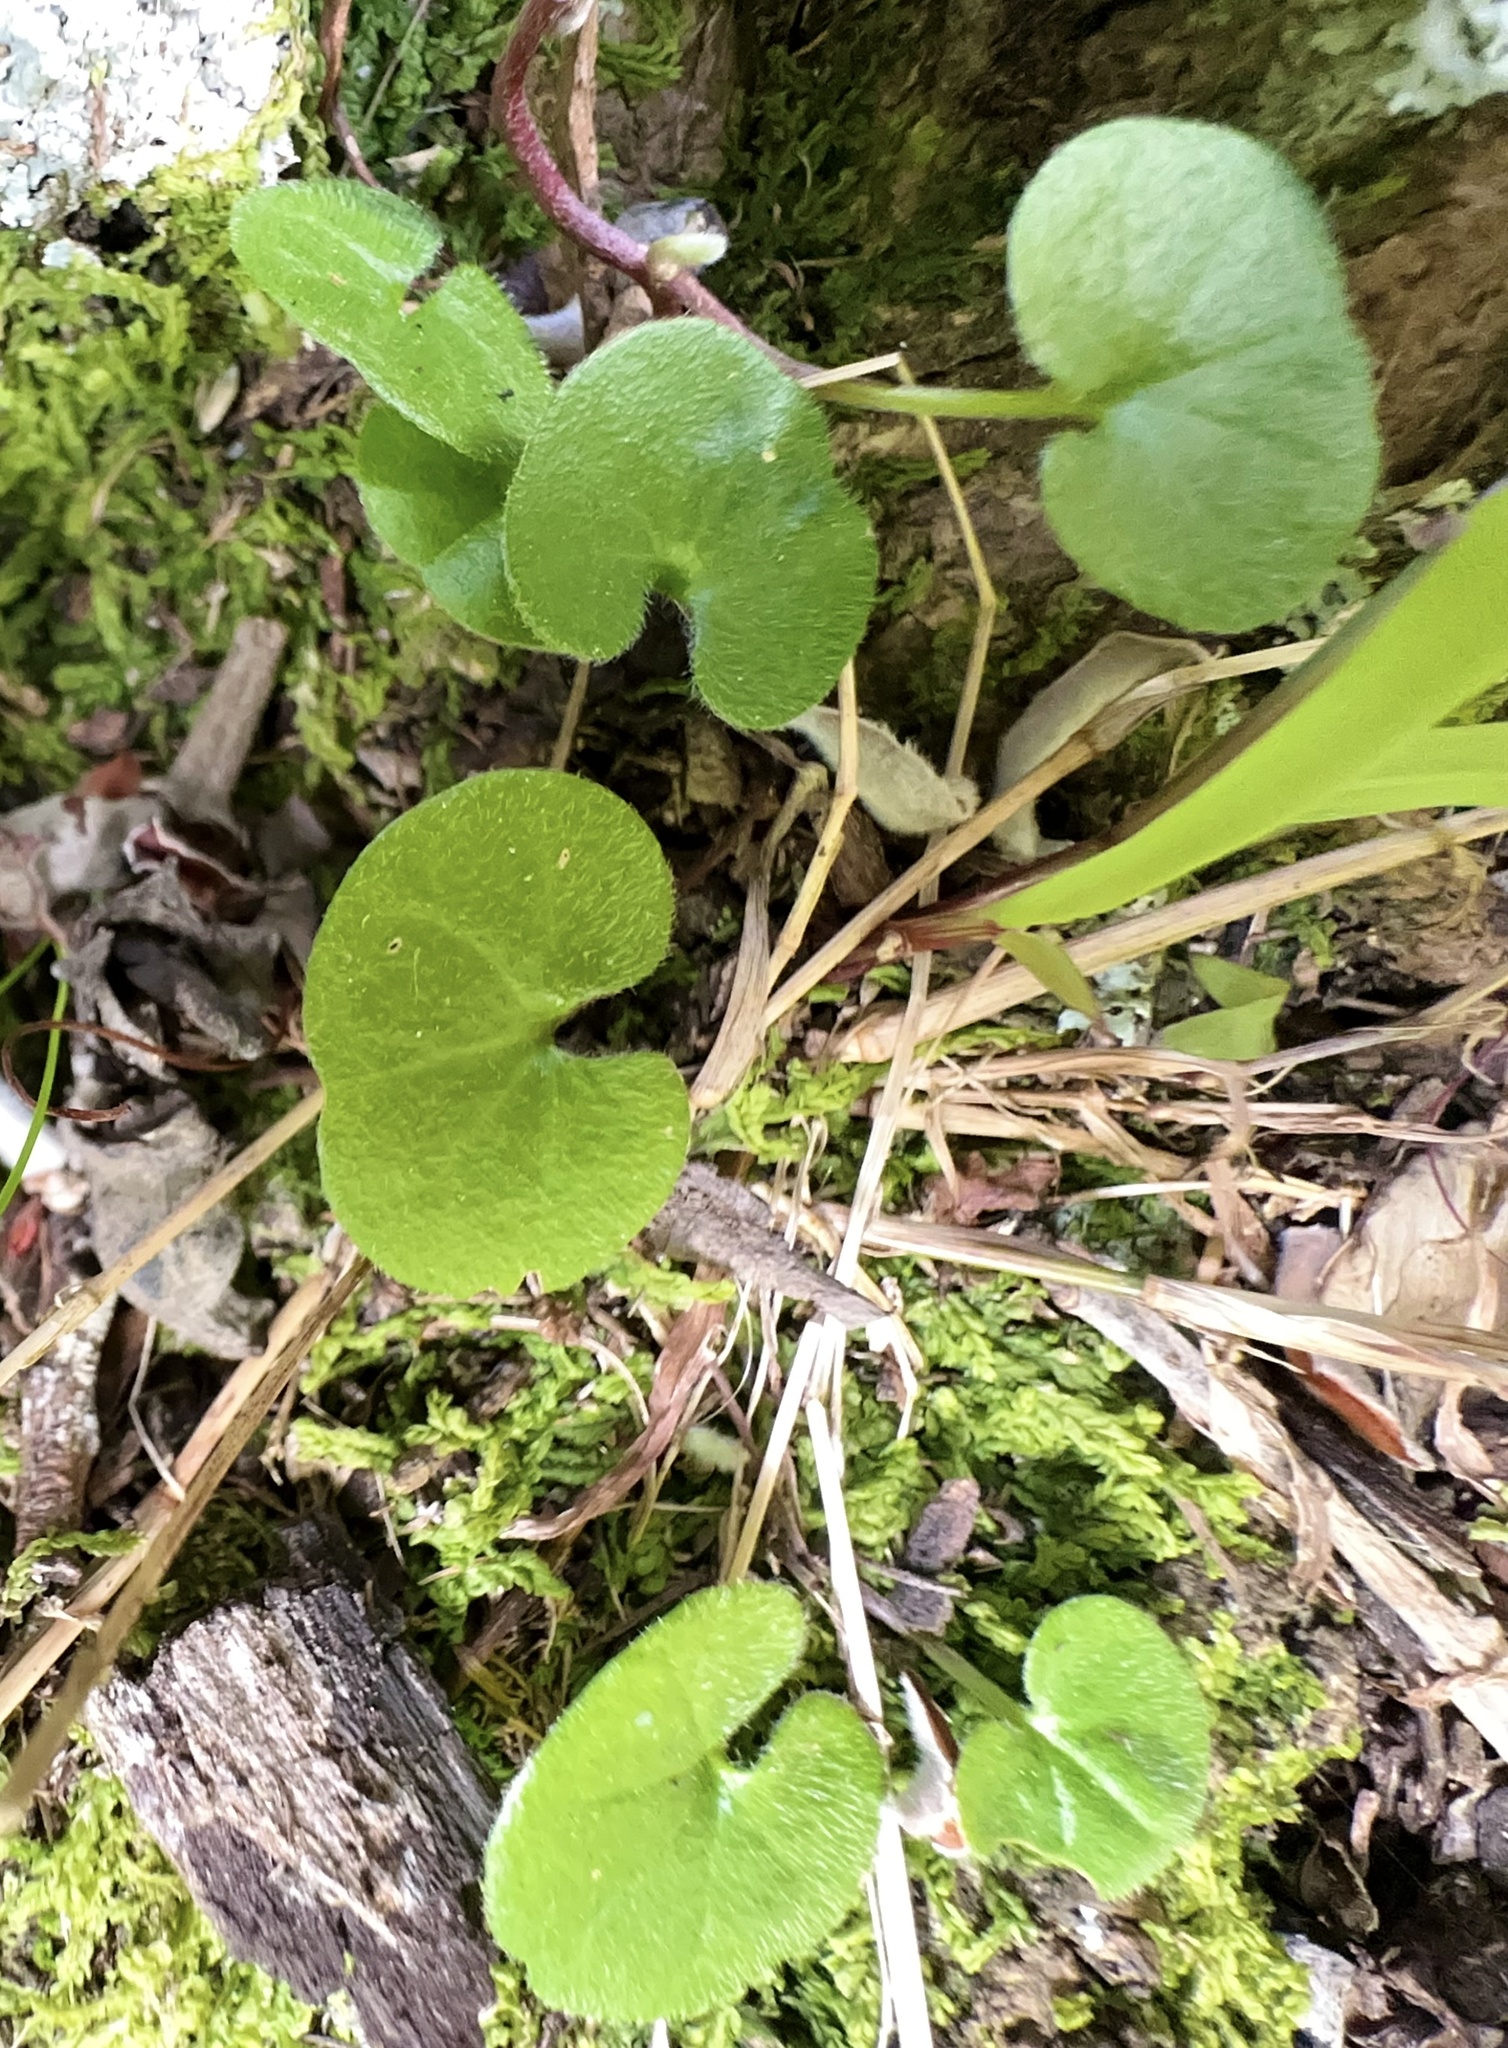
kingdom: Plantae
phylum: Tracheophyta
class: Magnoliopsida
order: Solanales
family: Convolvulaceae
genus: Dichondra
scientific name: Dichondra repens
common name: Kidneyweed
